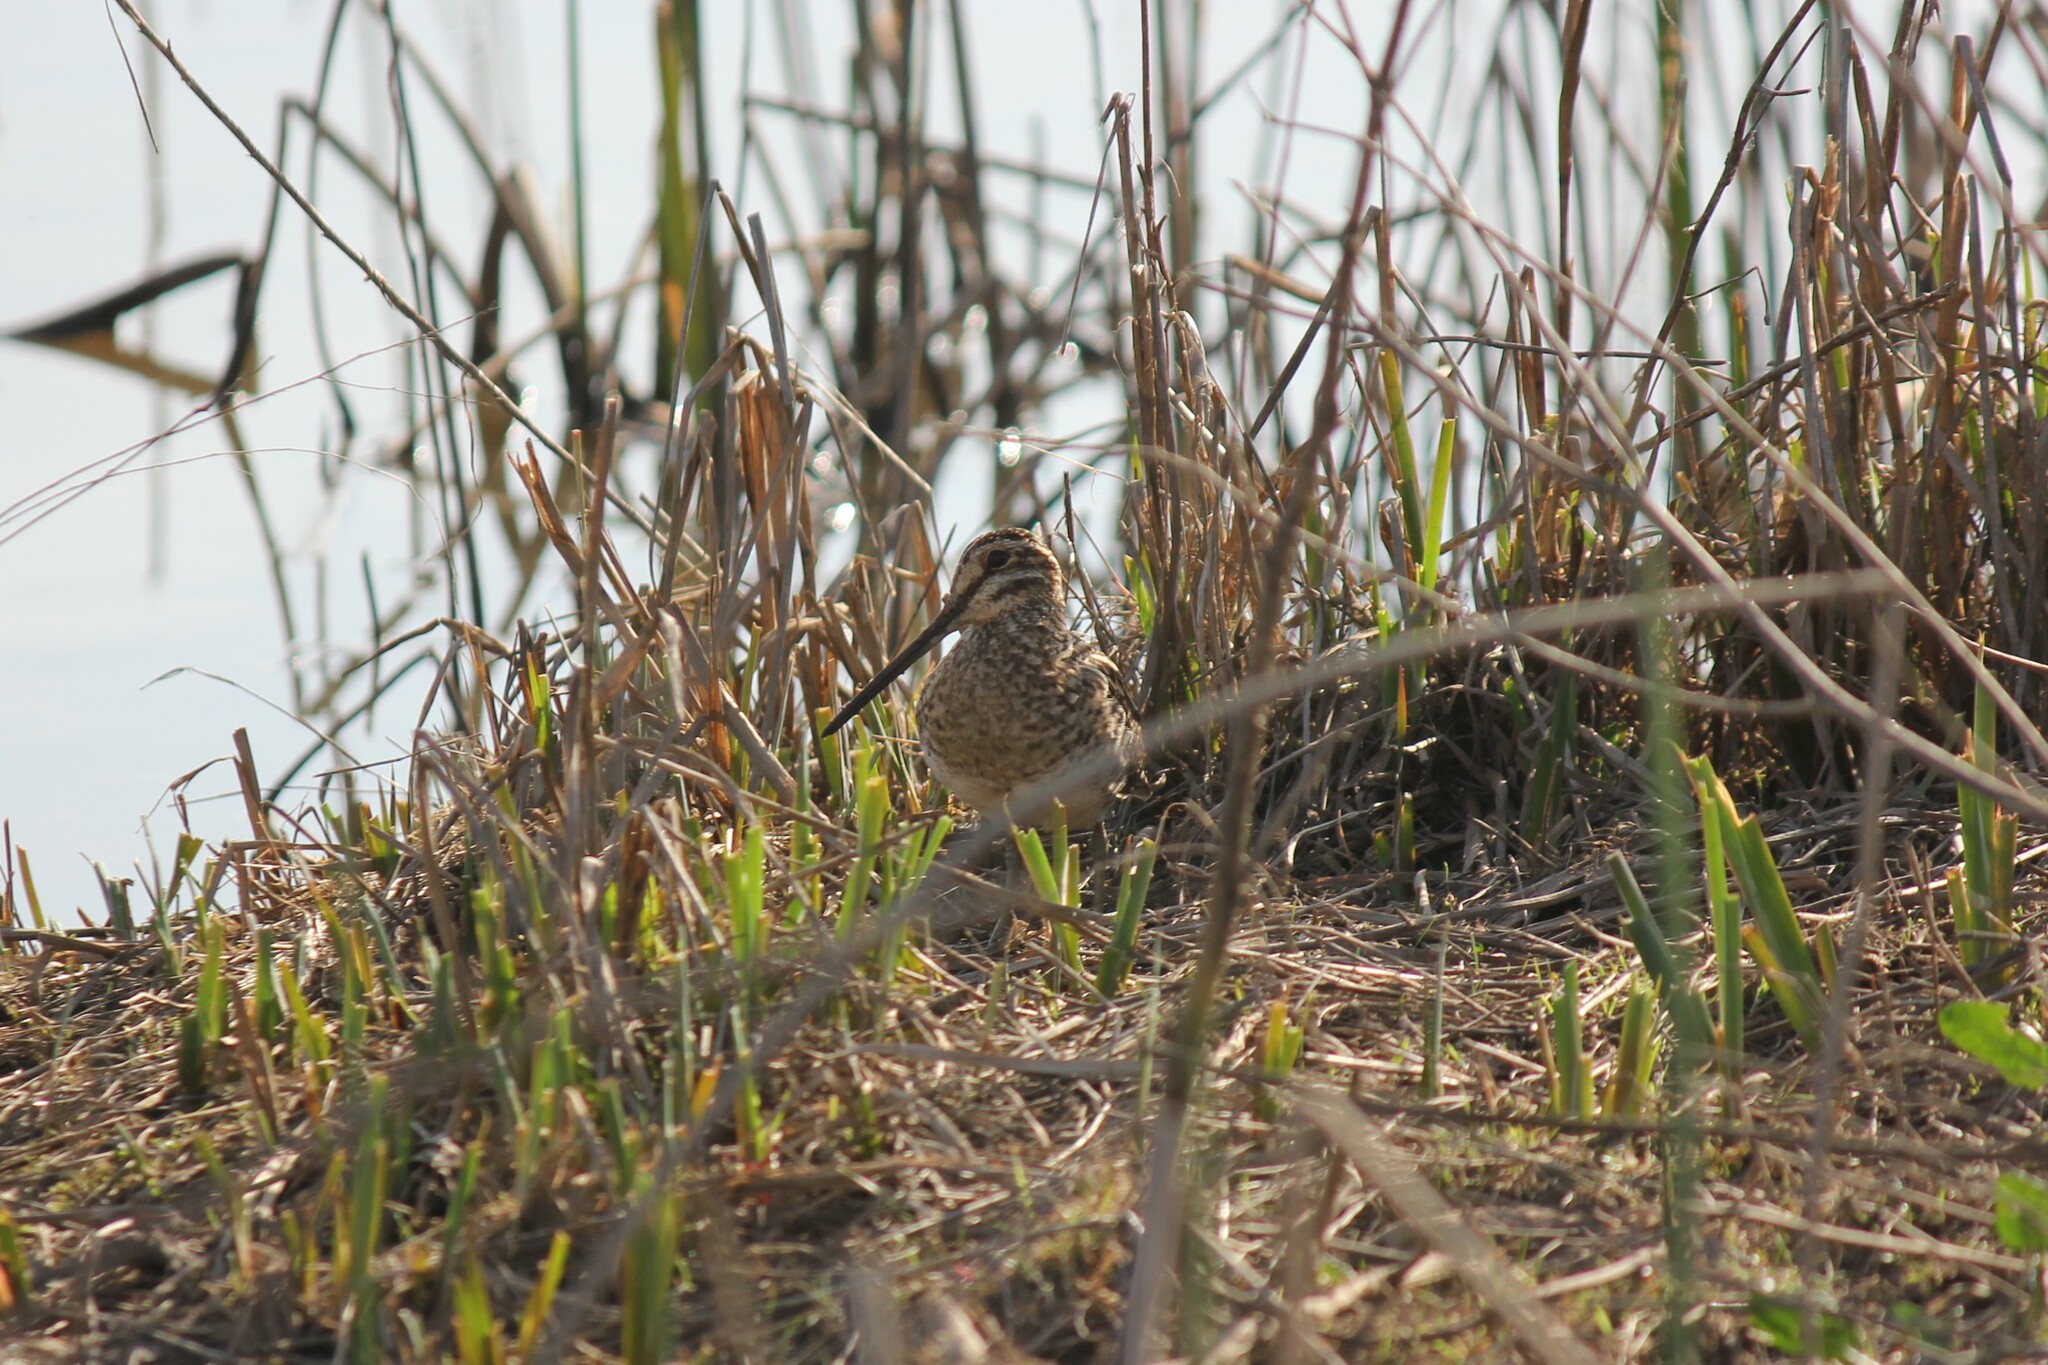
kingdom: Animalia
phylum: Chordata
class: Aves
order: Charadriiformes
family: Scolopacidae
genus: Gallinago
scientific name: Gallinago delicata
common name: Wilson's snipe
